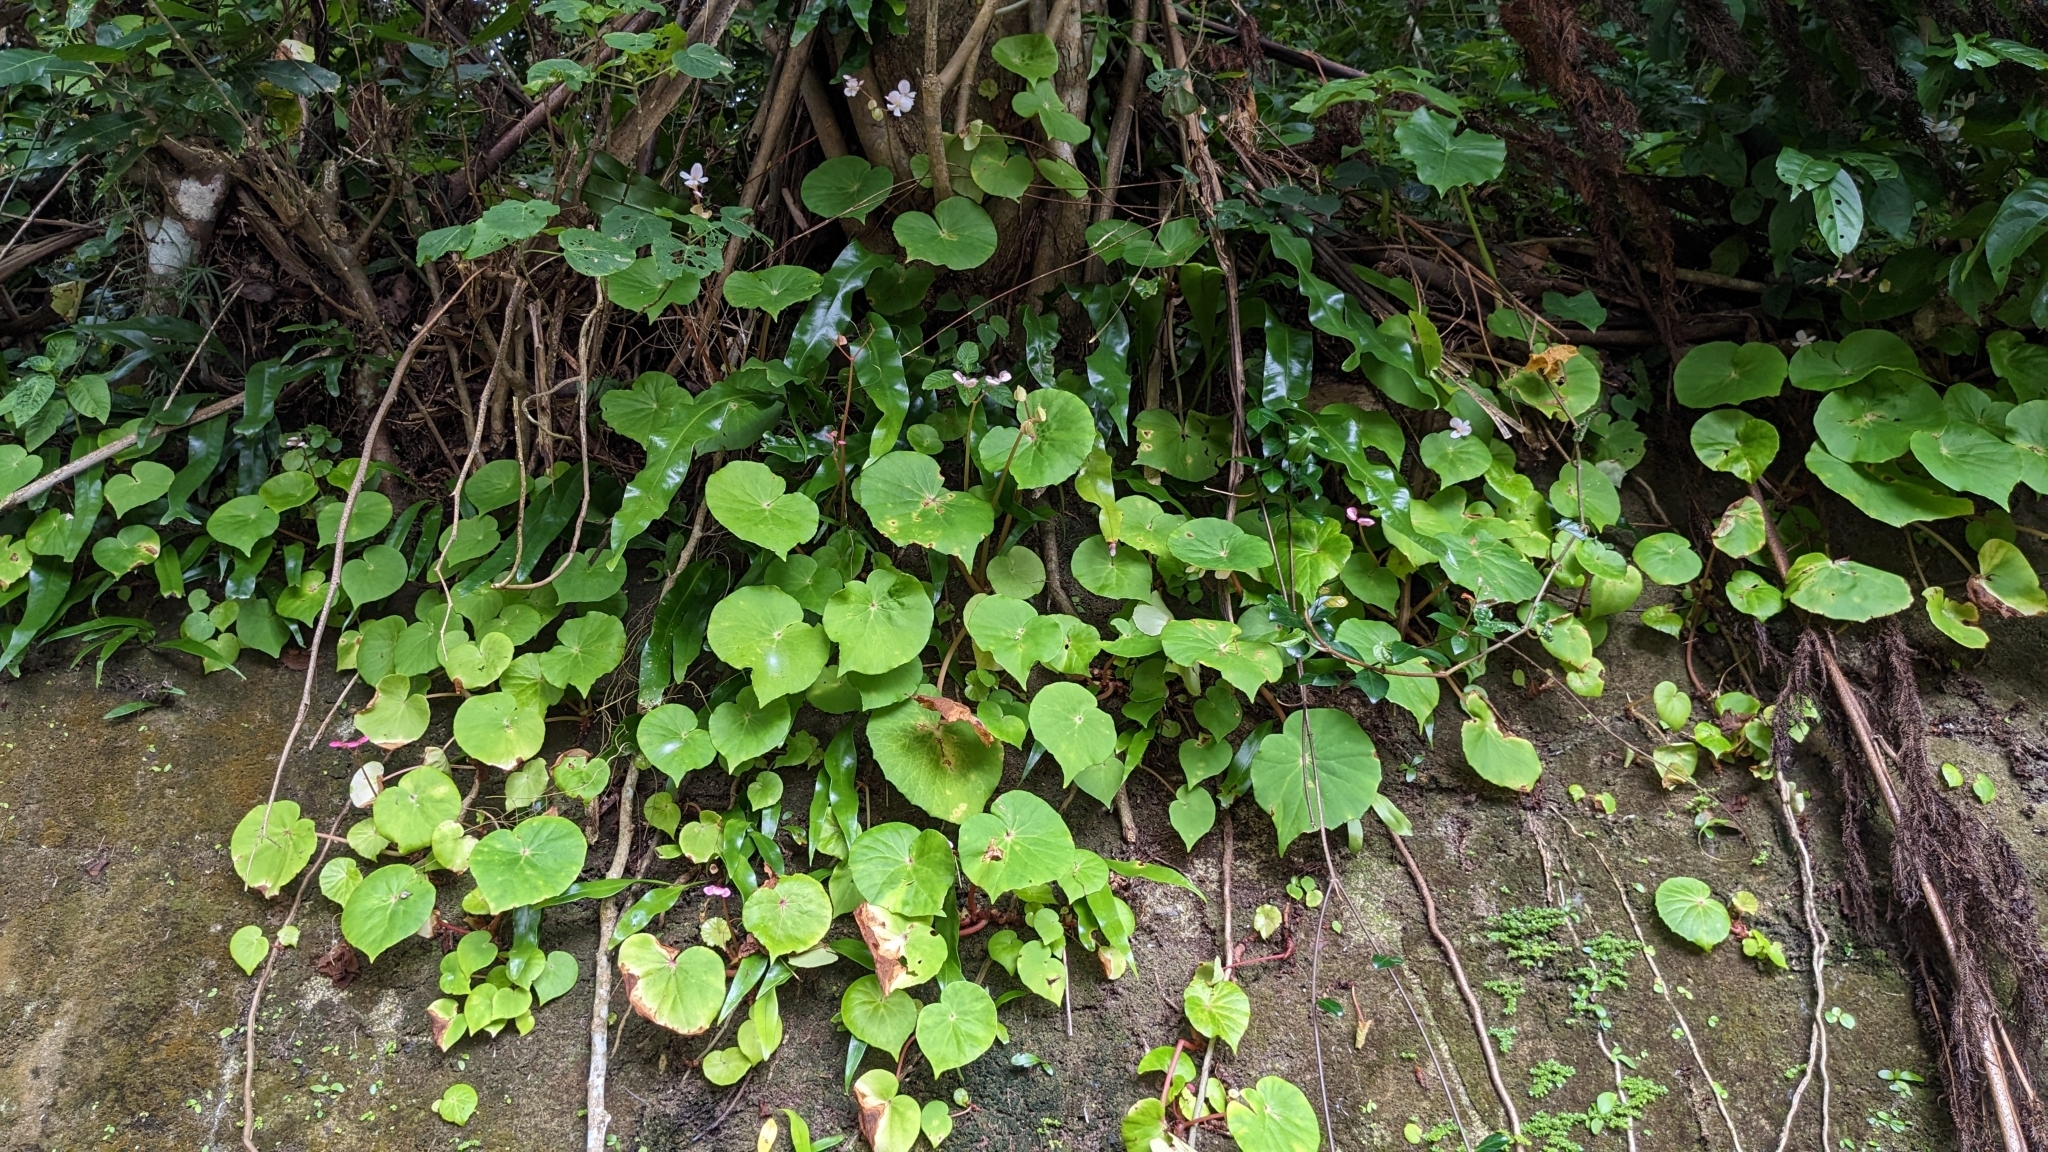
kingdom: Plantae
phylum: Tracheophyta
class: Magnoliopsida
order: Cucurbitales
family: Begoniaceae
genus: Begonia
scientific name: Begonia fenicis
